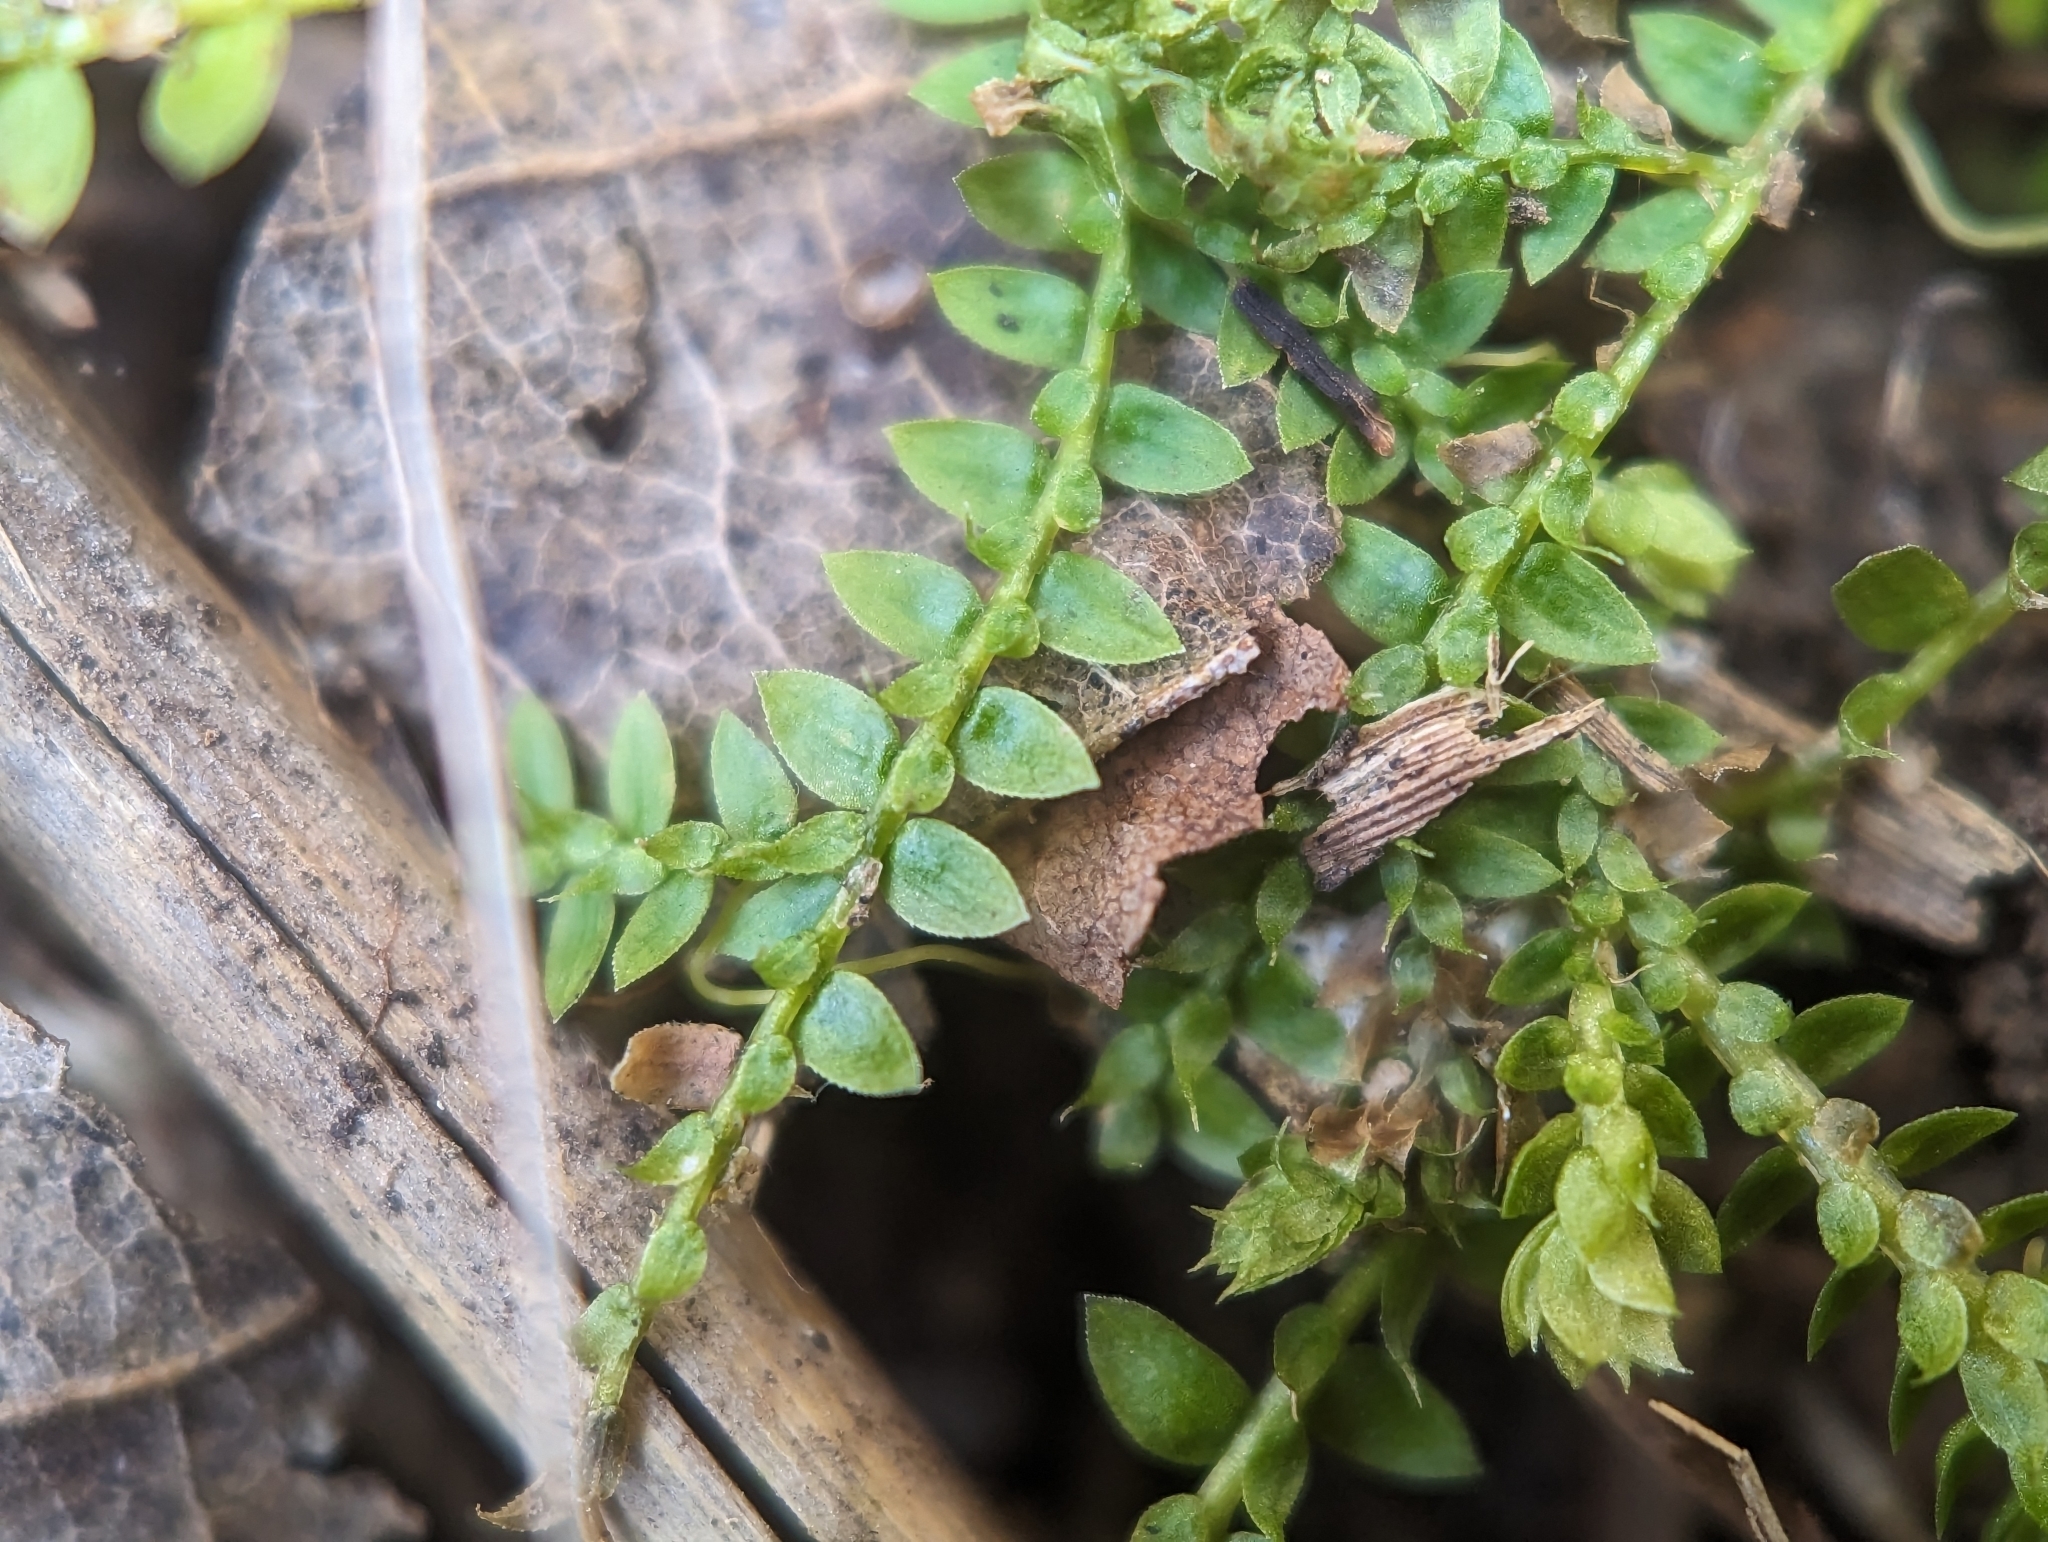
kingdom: Plantae
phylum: Tracheophyta
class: Lycopodiopsida
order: Selaginellales
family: Selaginellaceae
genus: Selaginella
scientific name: Selaginella eclipes
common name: Buck's meadow spikemoss
